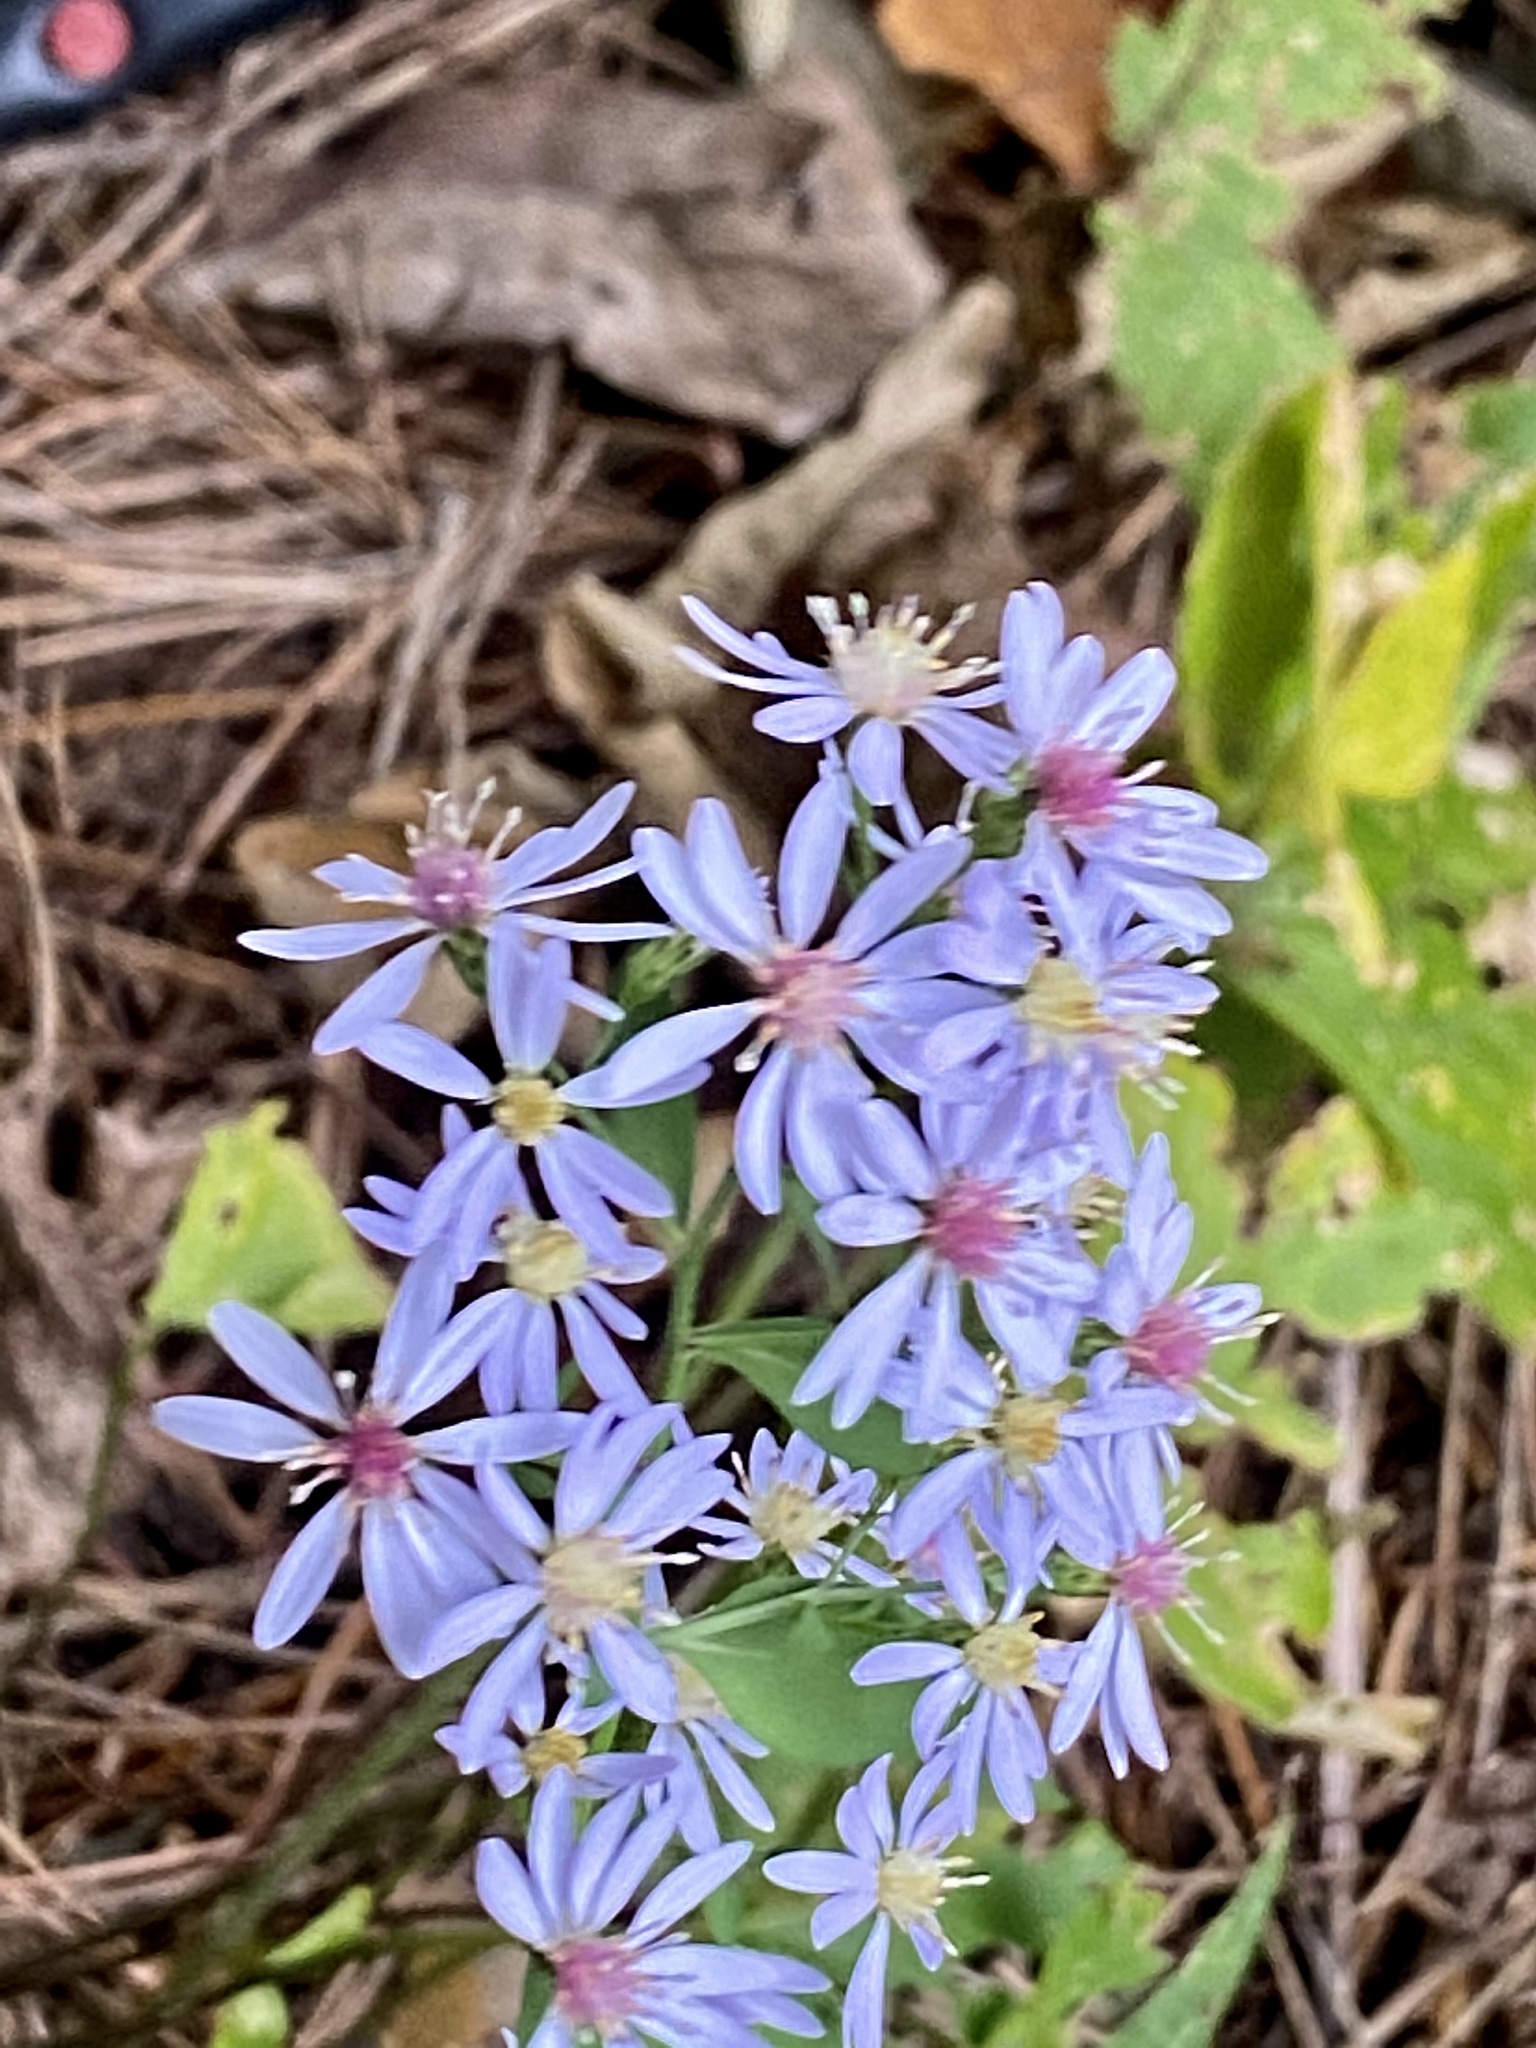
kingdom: Plantae
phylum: Tracheophyta
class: Magnoliopsida
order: Asterales
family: Asteraceae
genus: Symphyotrichum
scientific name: Symphyotrichum cordifolium
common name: Beeweed
